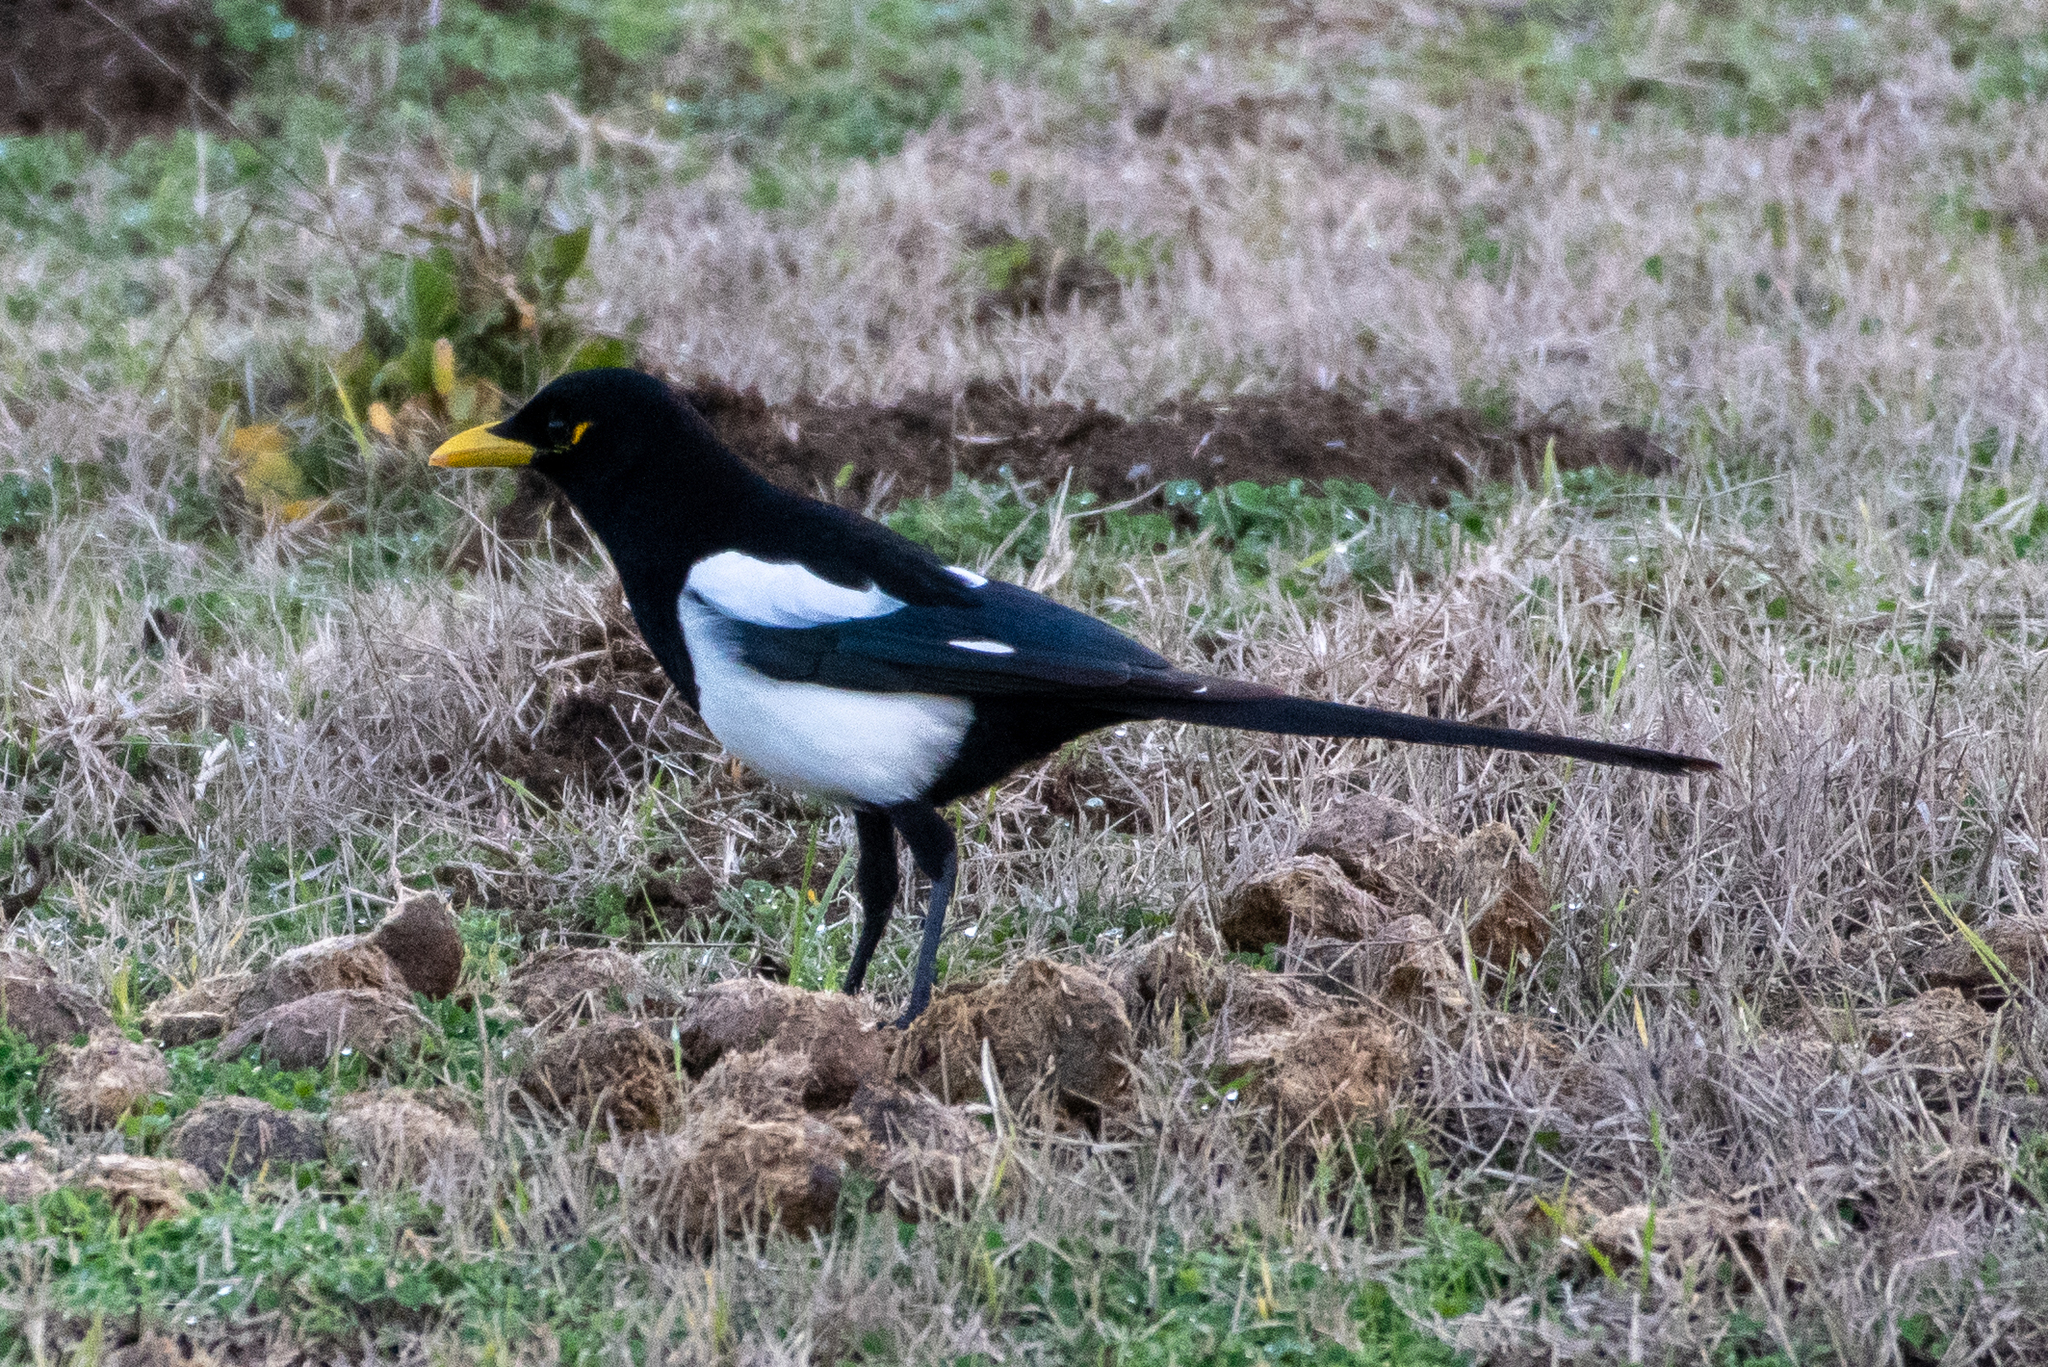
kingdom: Animalia
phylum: Chordata
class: Aves
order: Passeriformes
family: Corvidae
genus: Pica
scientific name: Pica nuttalli
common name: Yellow-billed magpie
